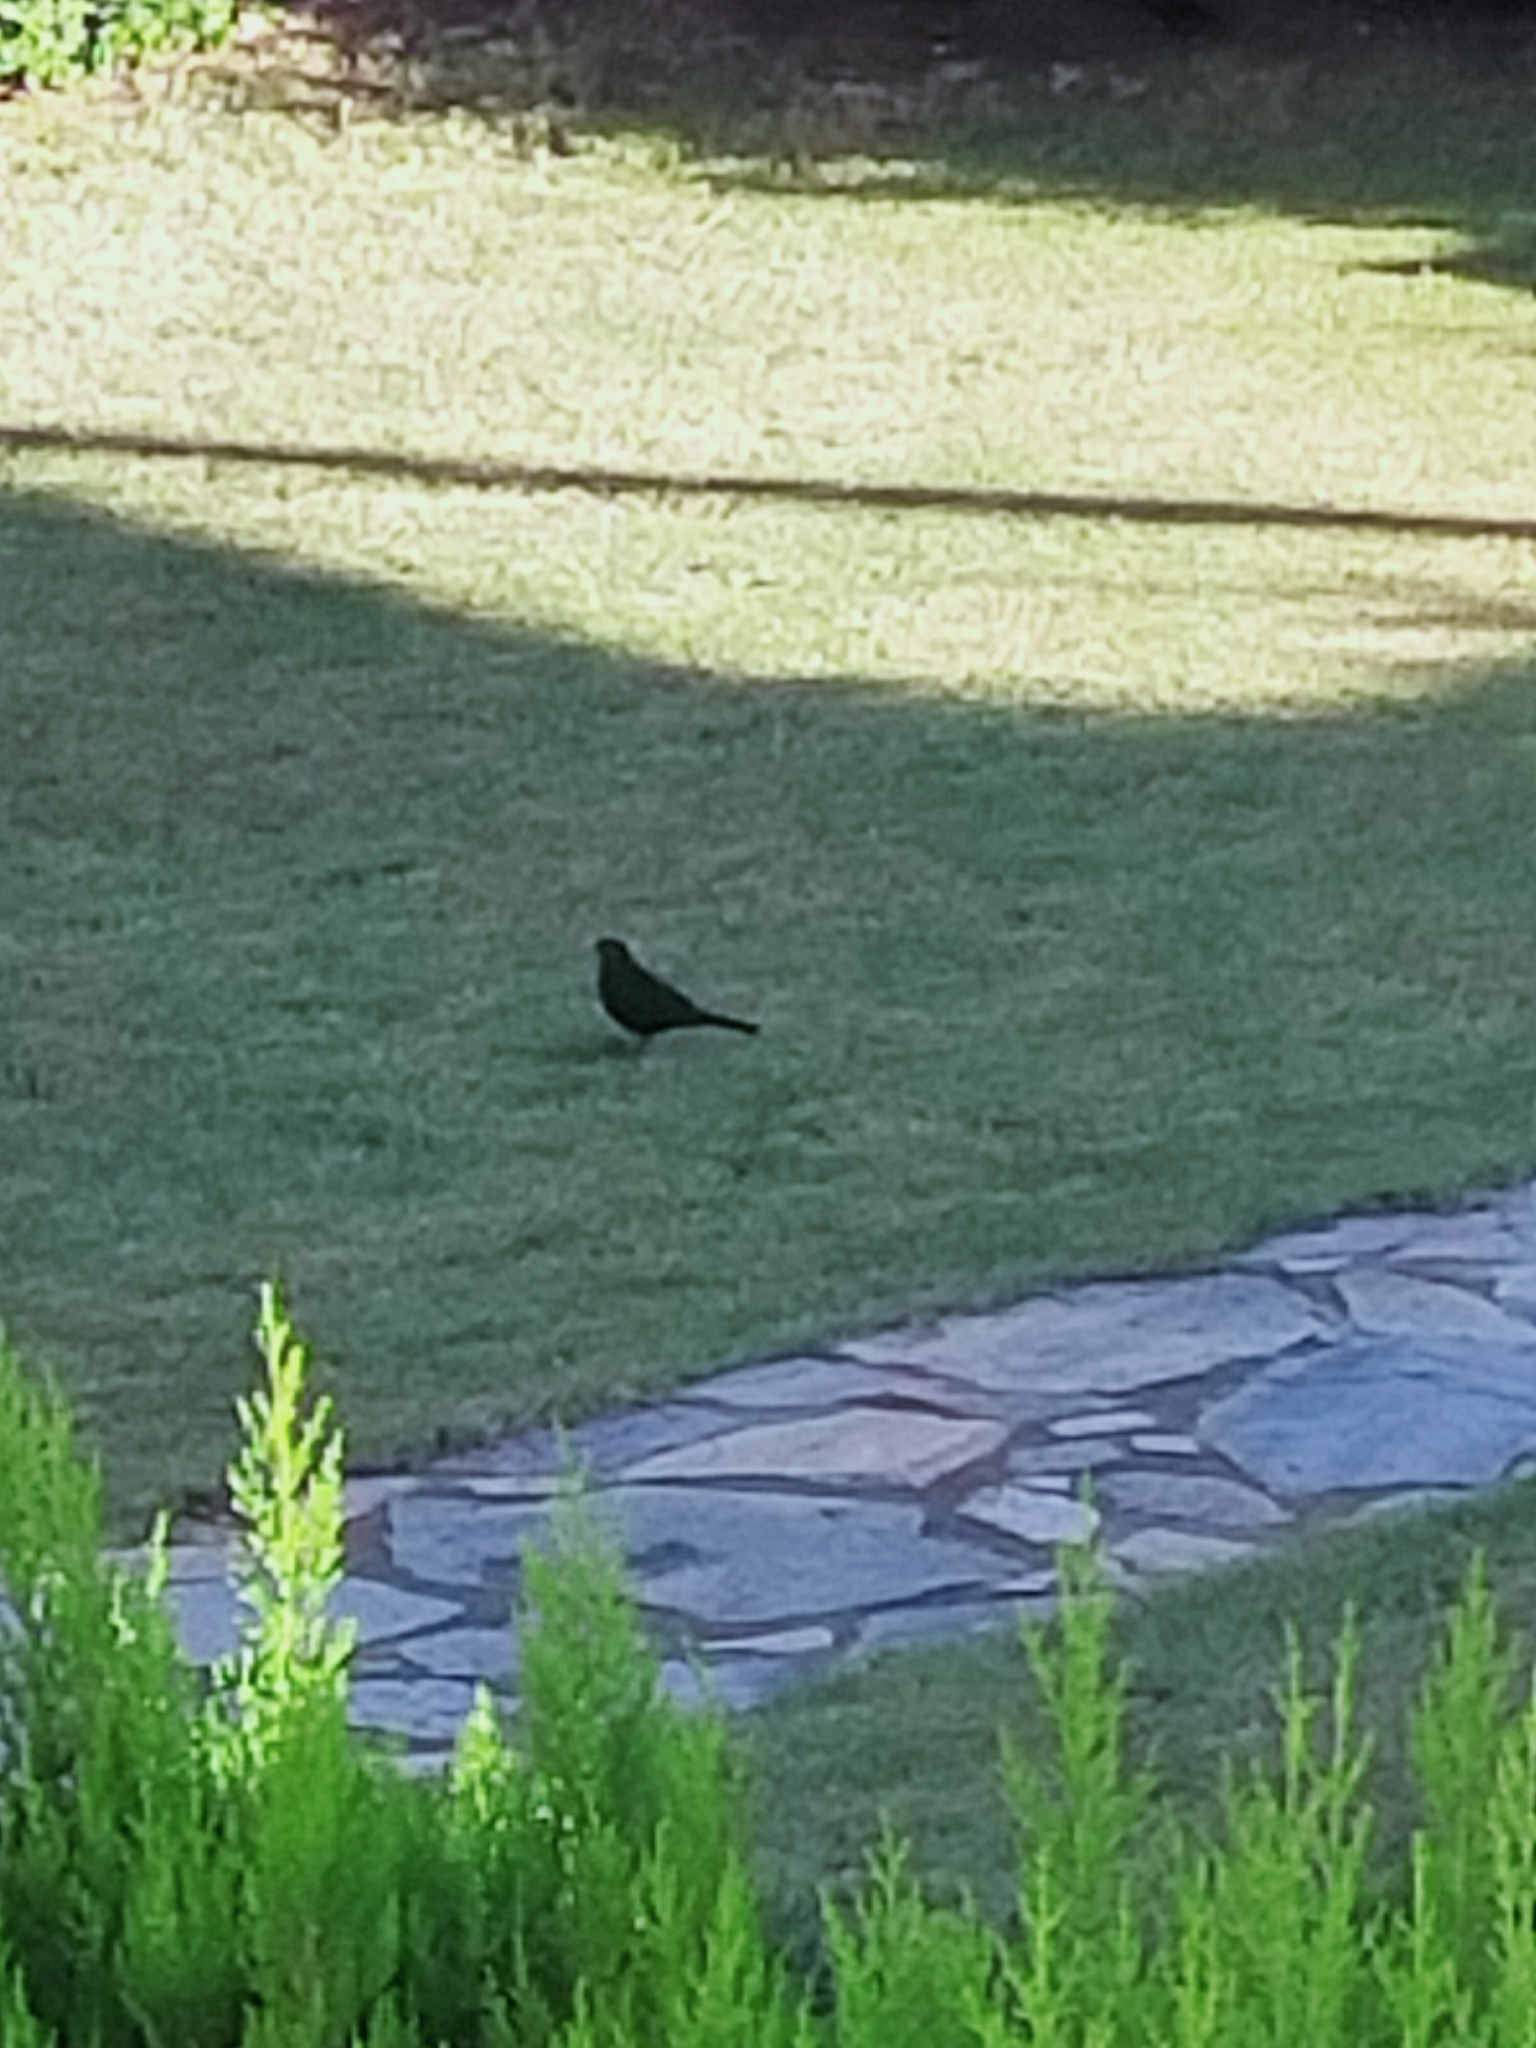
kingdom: Animalia
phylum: Chordata
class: Aves
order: Passeriformes
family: Turdidae
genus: Turdus
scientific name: Turdus merula
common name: Common blackbird
